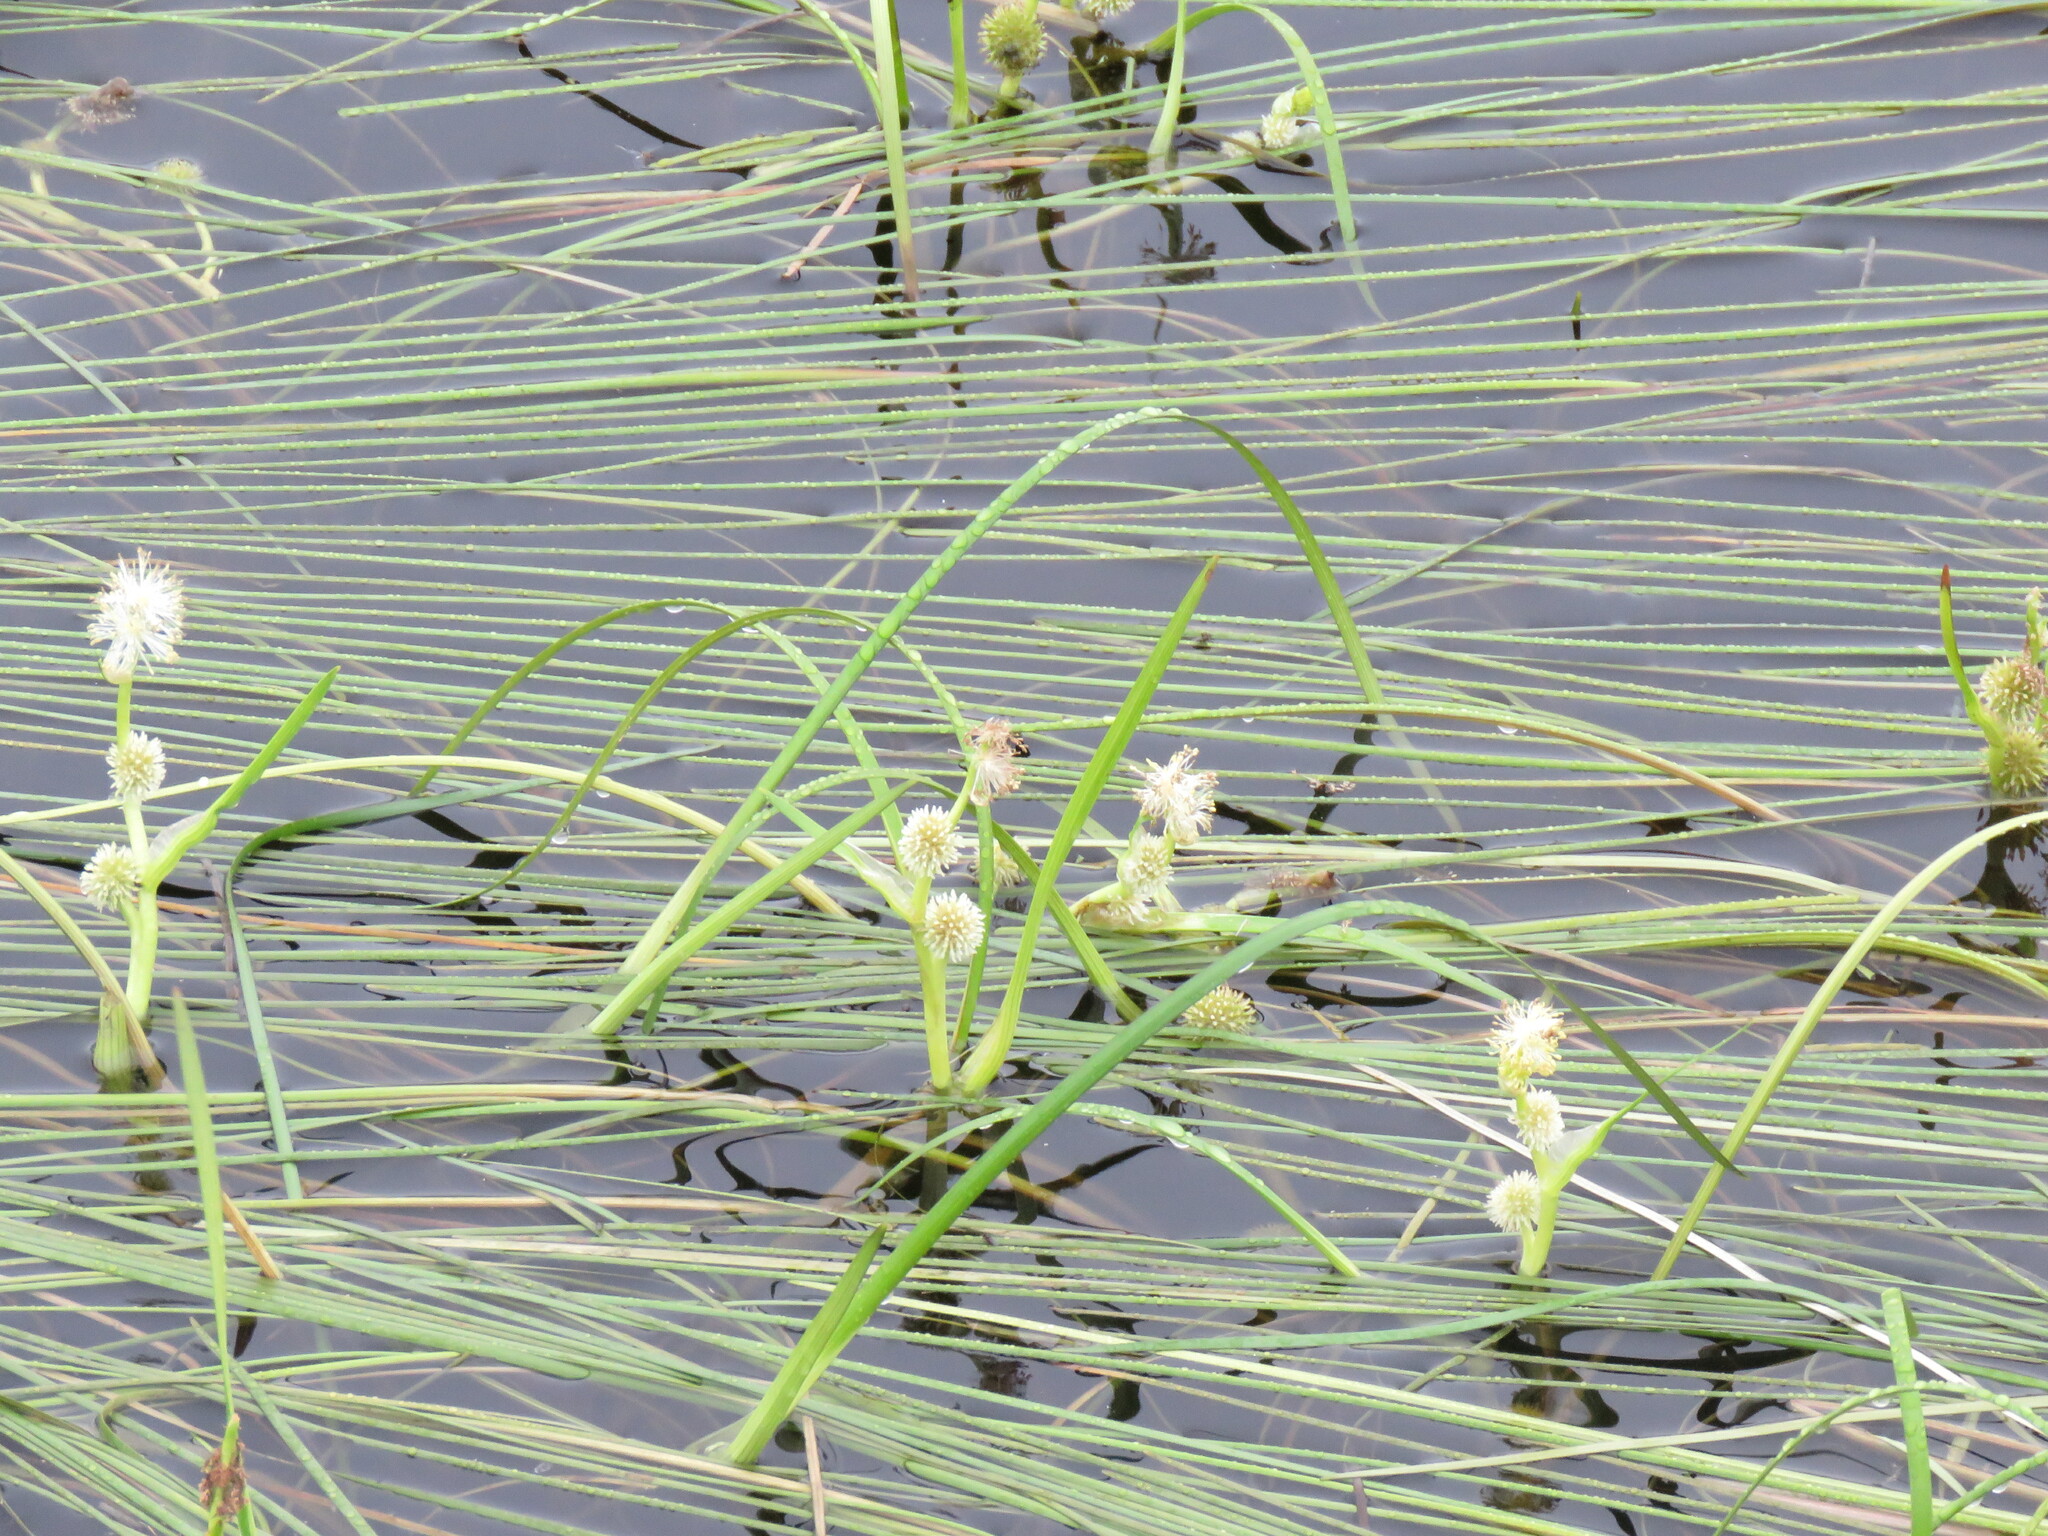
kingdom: Plantae
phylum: Tracheophyta
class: Liliopsida
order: Poales
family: Typhaceae
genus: Sparganium
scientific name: Sparganium angustifolium
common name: Floating bur-reed
